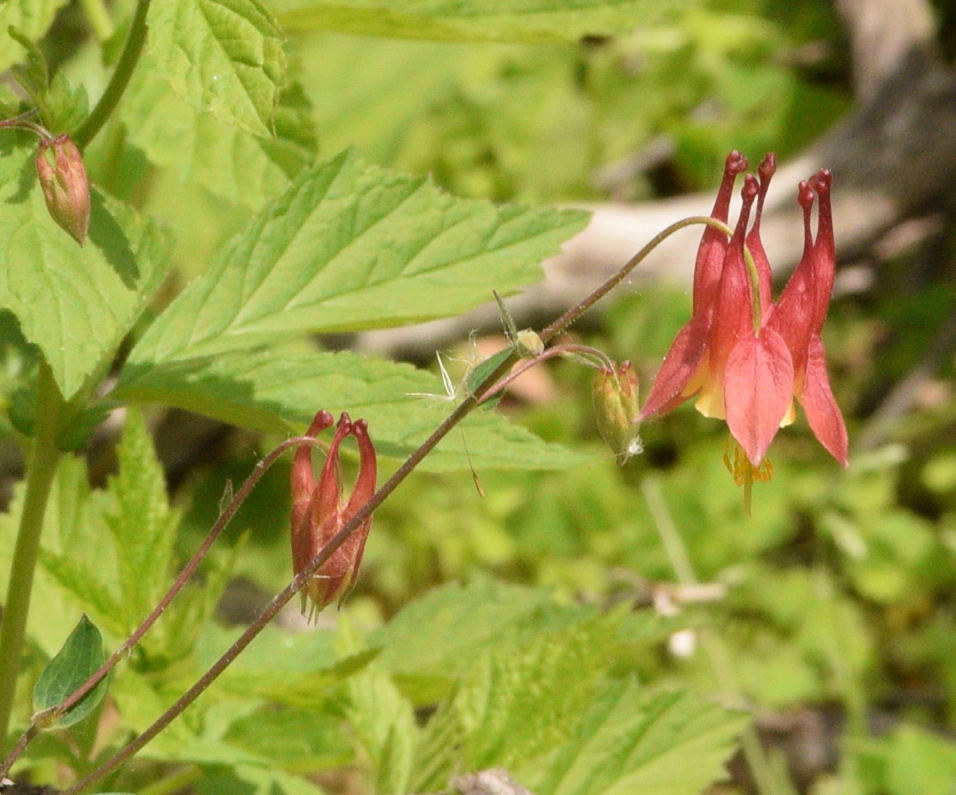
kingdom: Plantae
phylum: Tracheophyta
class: Magnoliopsida
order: Ranunculales
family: Ranunculaceae
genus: Aquilegia
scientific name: Aquilegia canadensis
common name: American columbine
